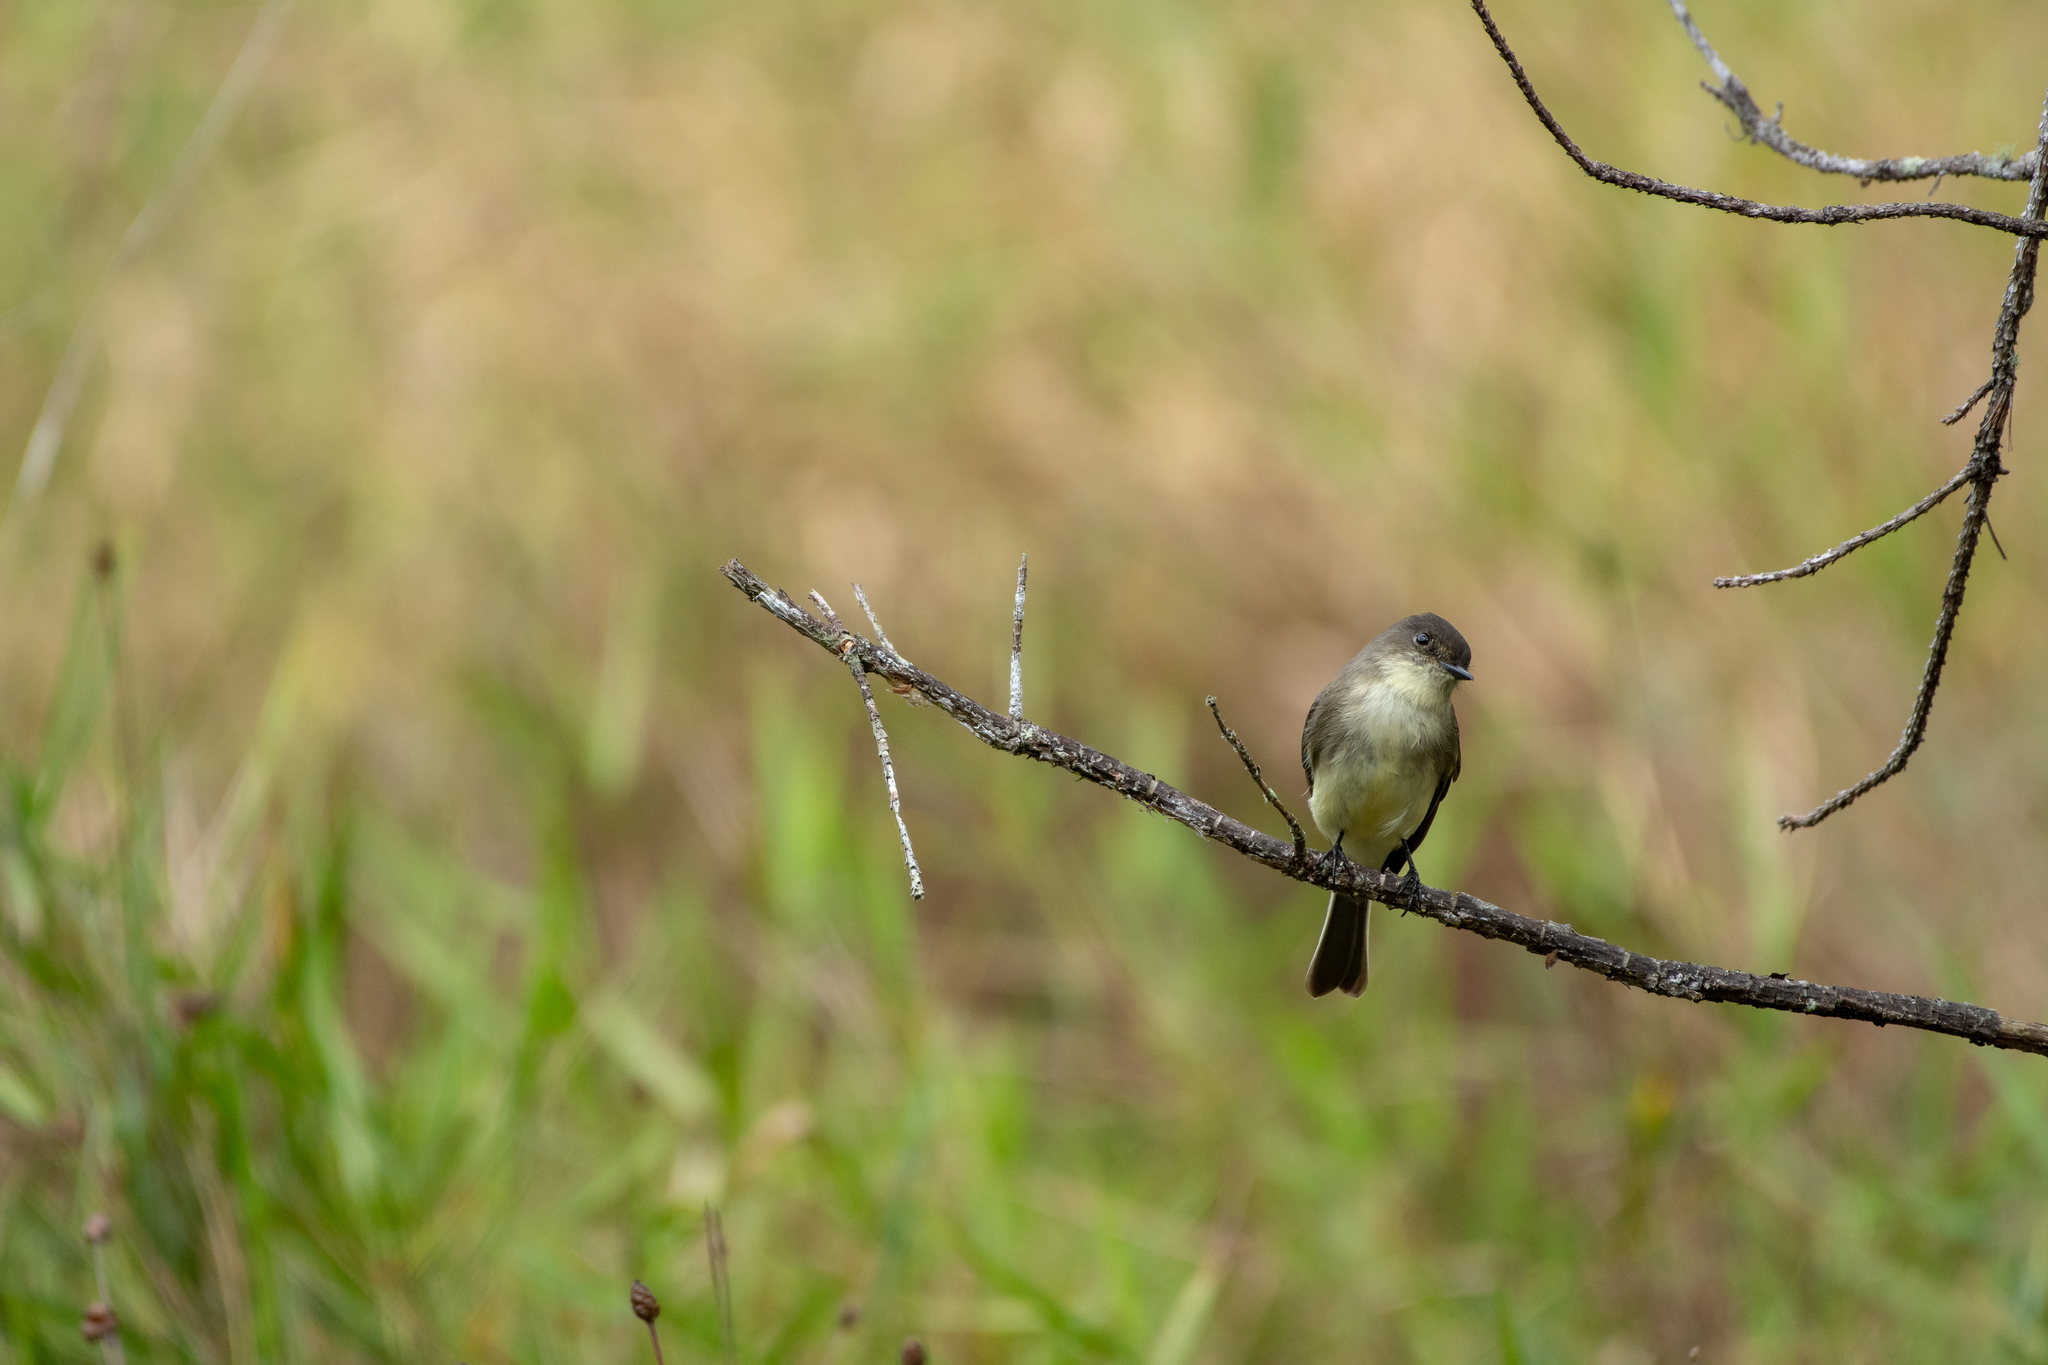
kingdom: Animalia
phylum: Chordata
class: Aves
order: Passeriformes
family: Tyrannidae
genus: Sayornis
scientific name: Sayornis phoebe
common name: Eastern phoebe
